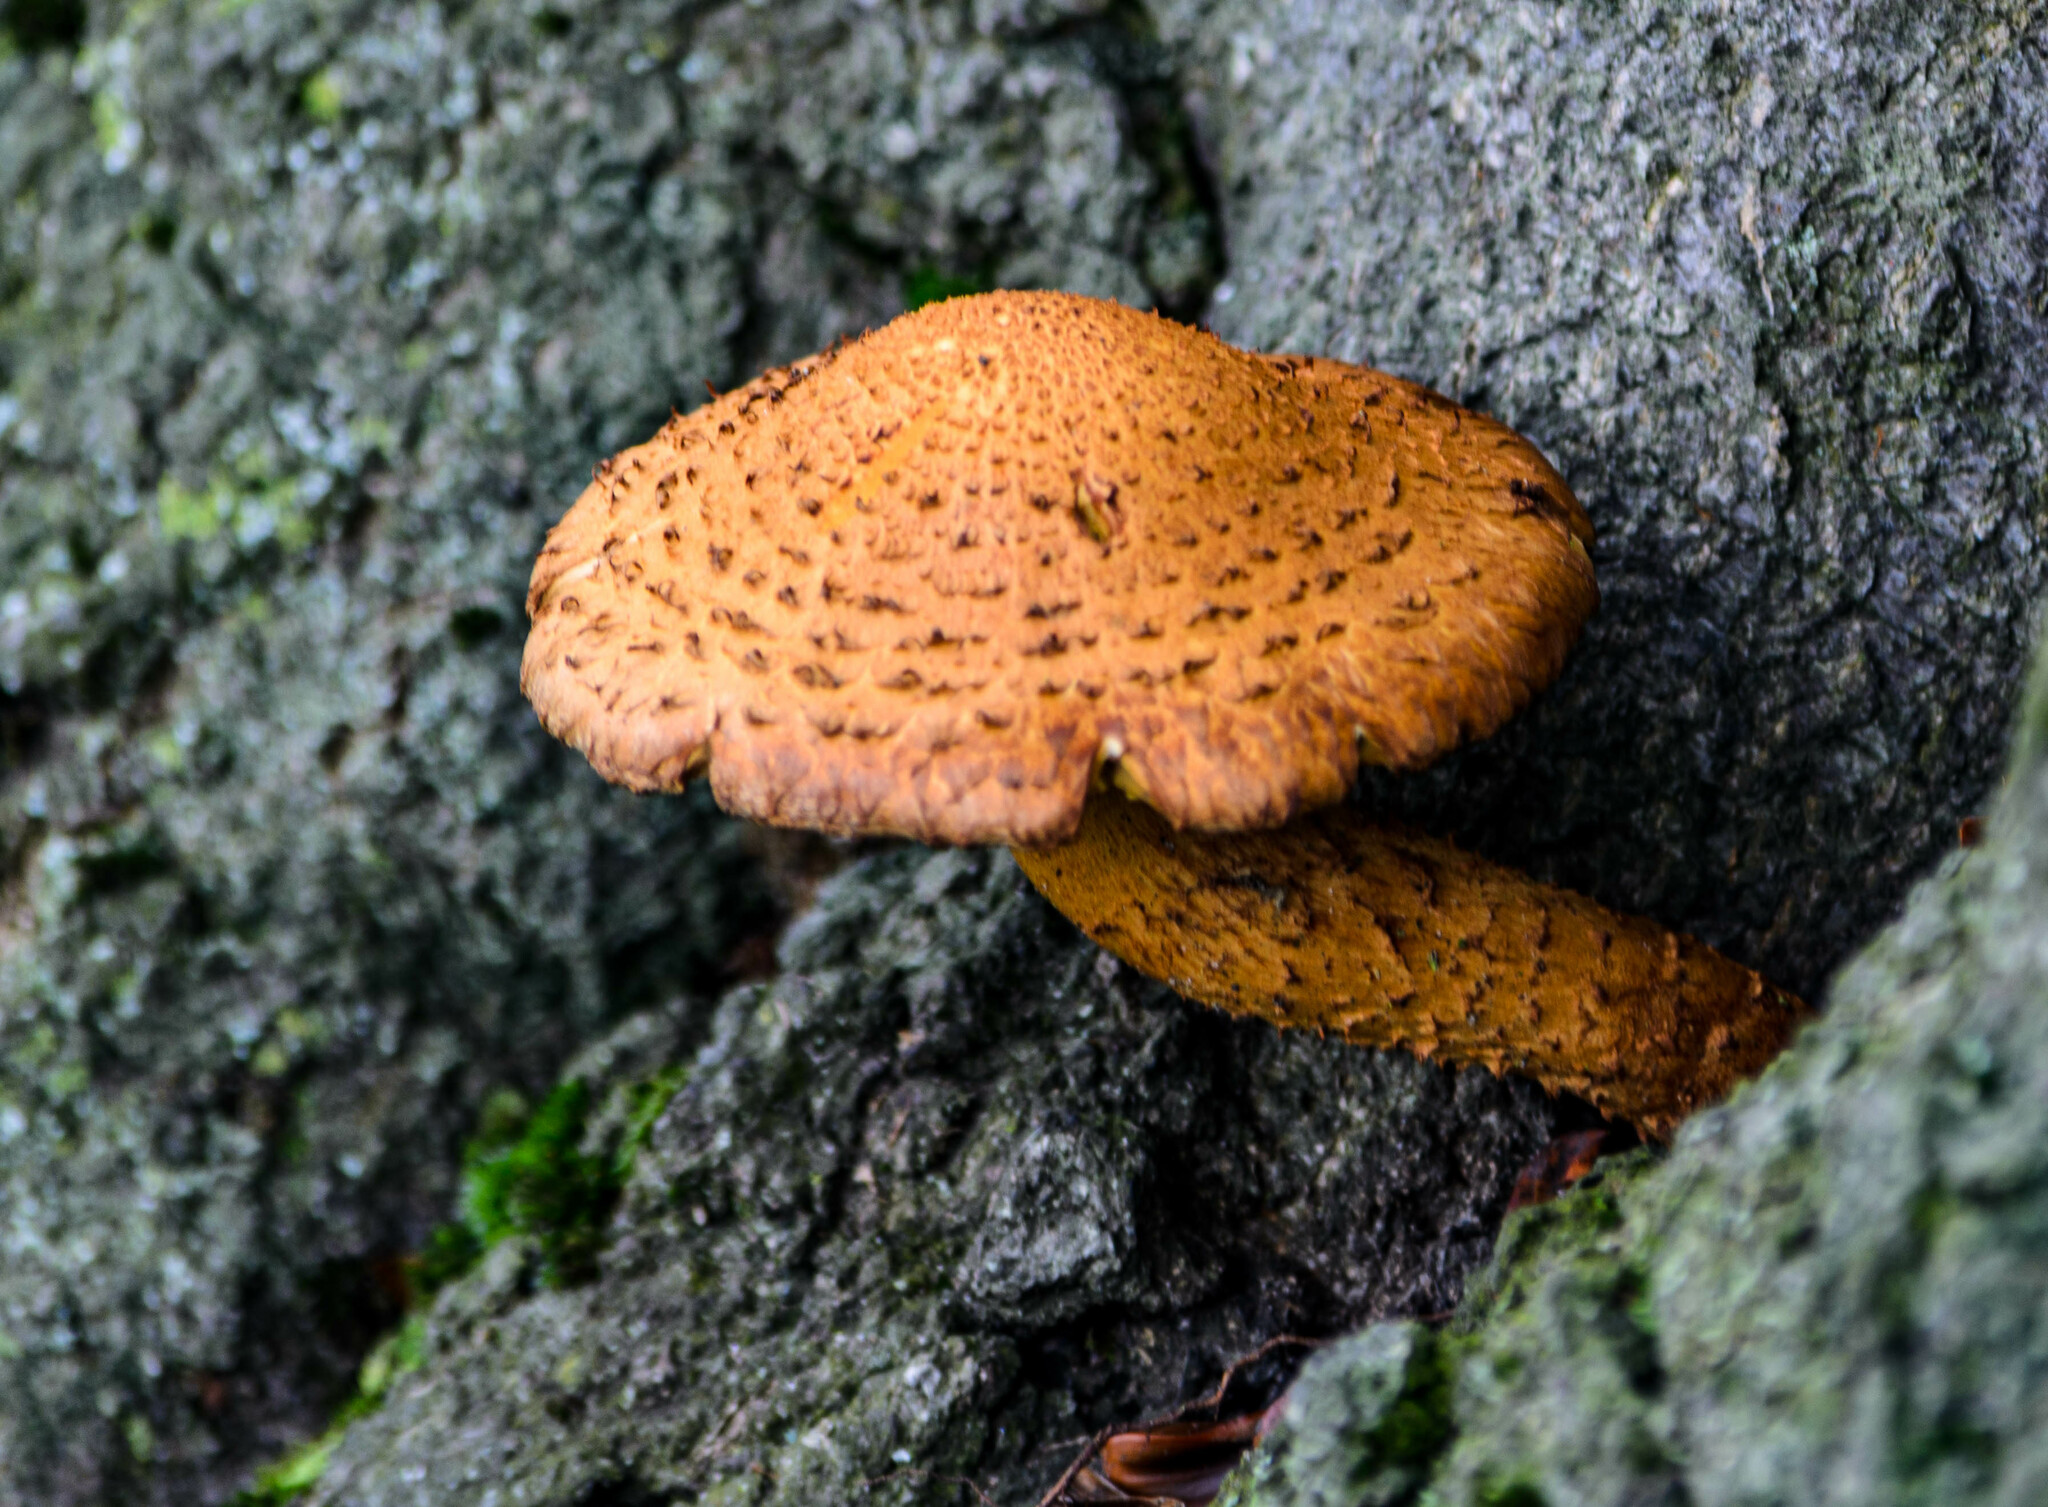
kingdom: Fungi
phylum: Basidiomycota
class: Agaricomycetes
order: Agaricales
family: Strophariaceae
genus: Pholiota
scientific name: Pholiota squarrosa
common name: Shaggy pholiota
